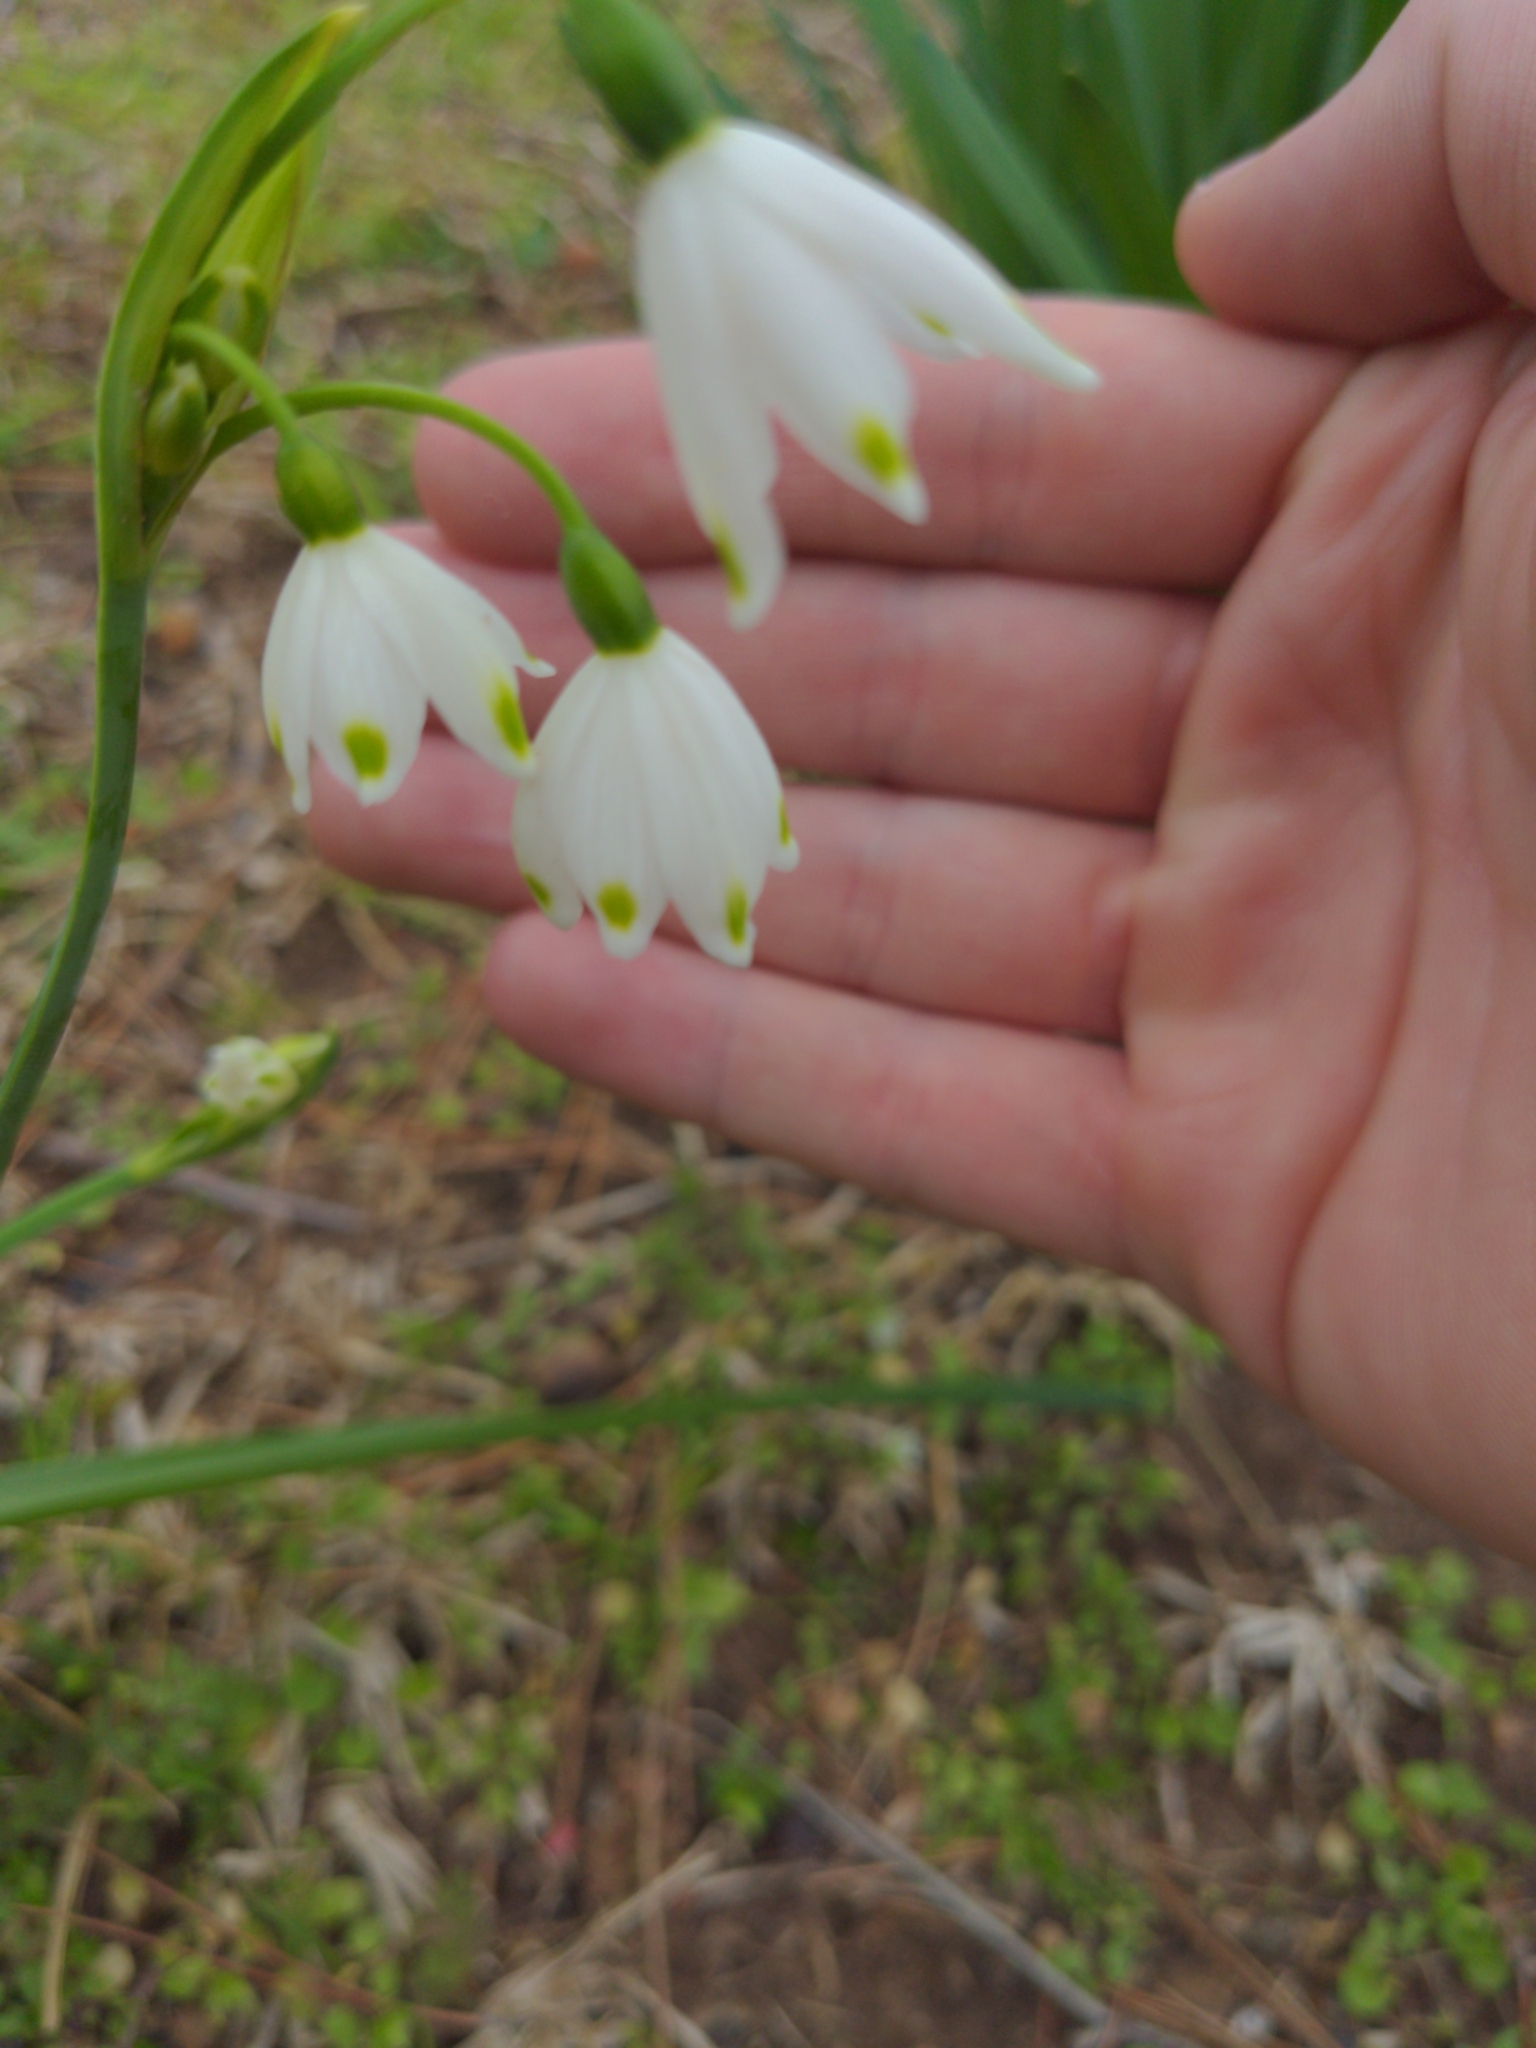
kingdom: Plantae
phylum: Tracheophyta
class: Liliopsida
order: Asparagales
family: Amaryllidaceae
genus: Leucojum
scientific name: Leucojum aestivum
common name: Summer snowflake
